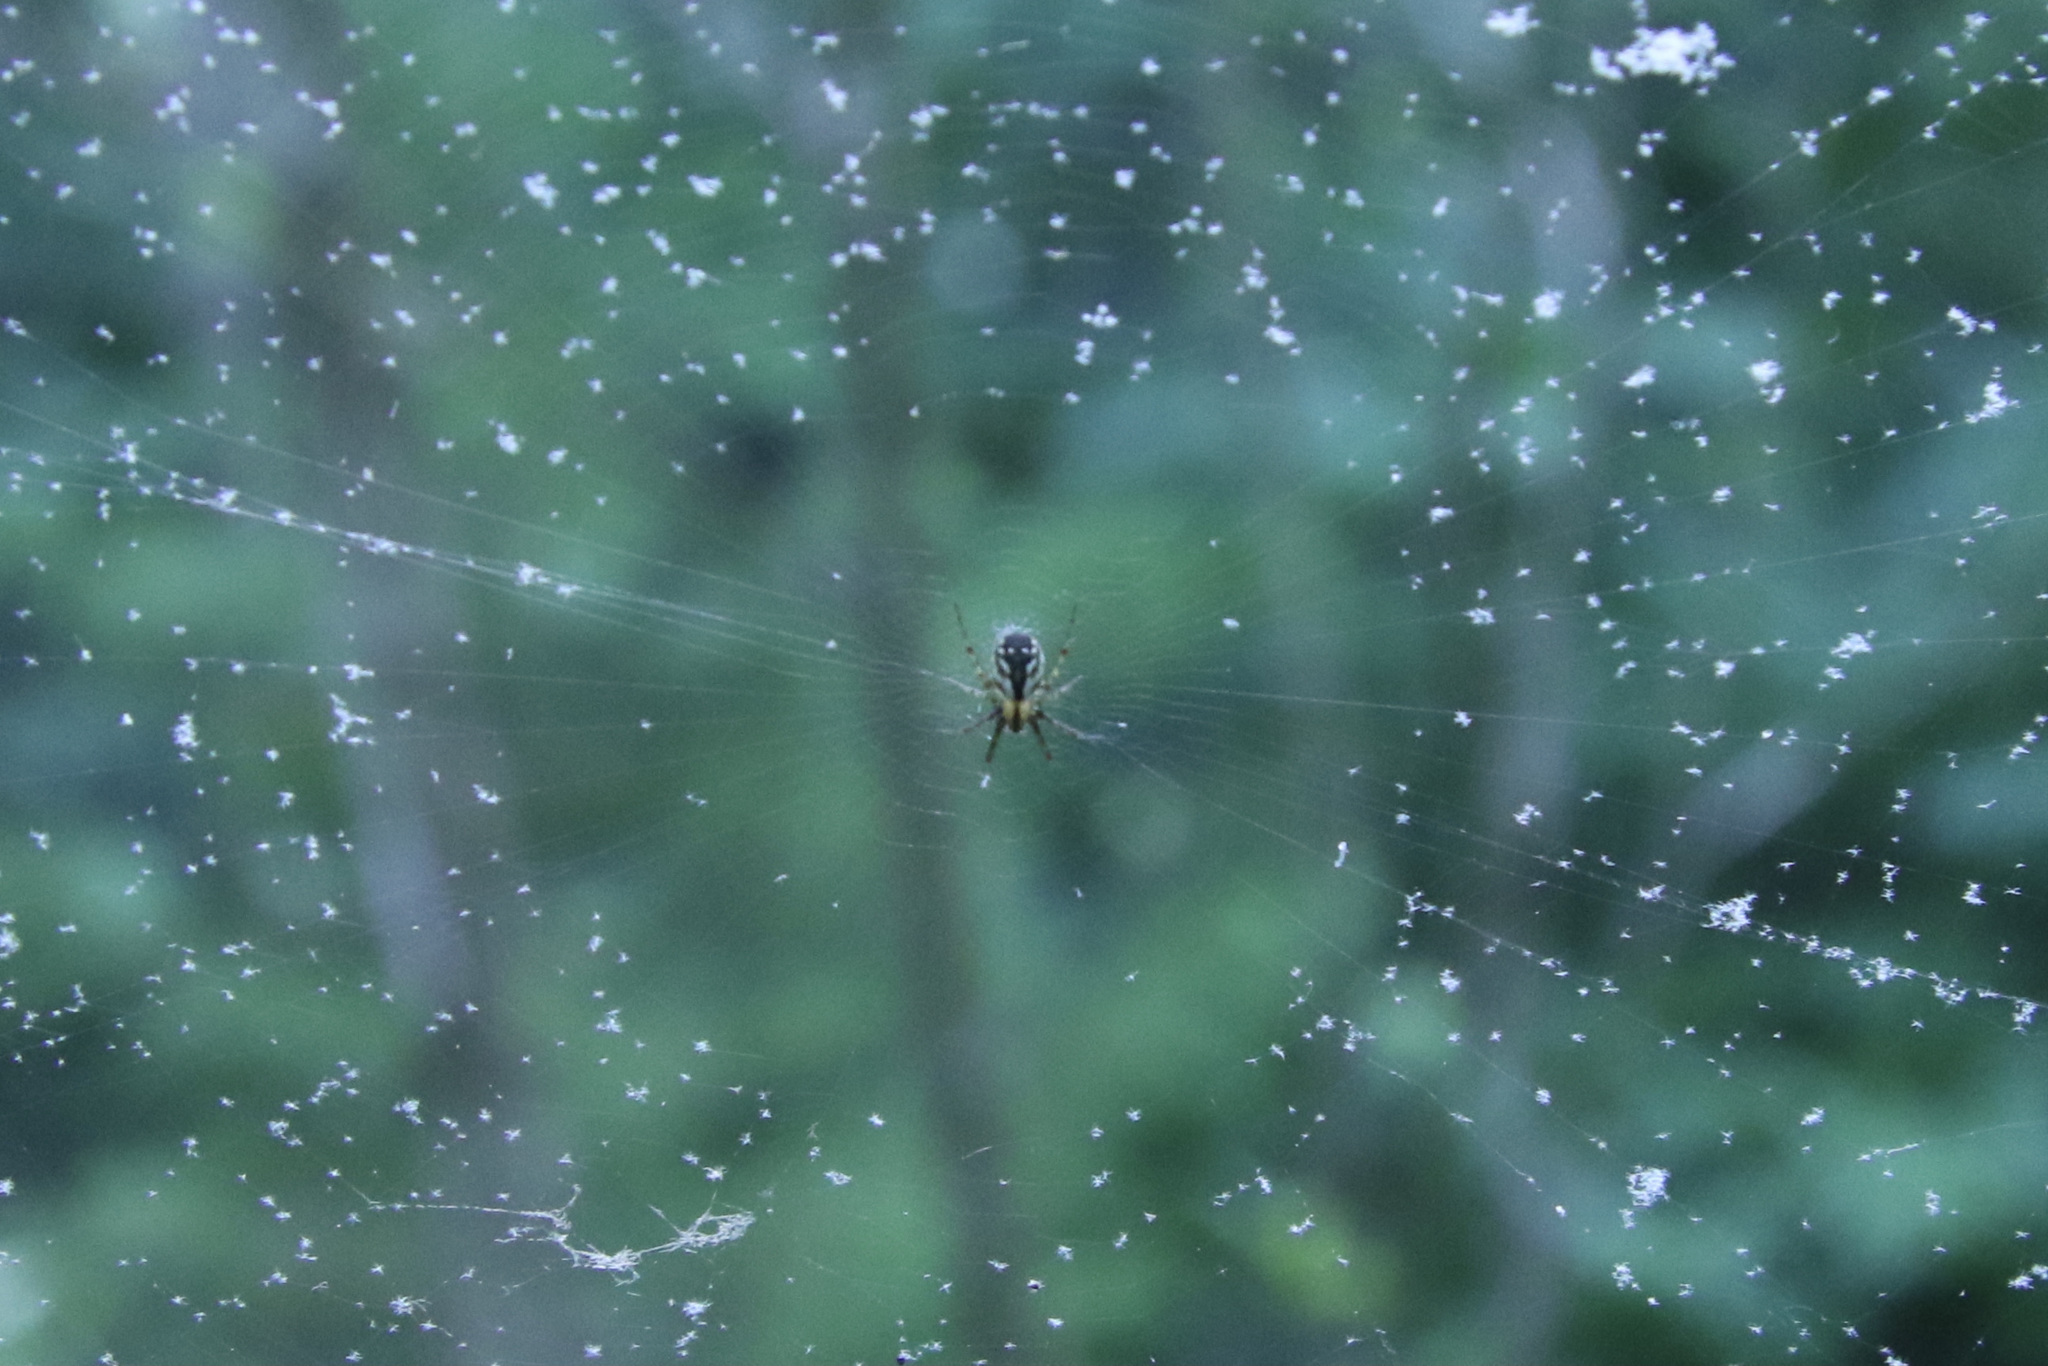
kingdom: Animalia
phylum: Arthropoda
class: Arachnida
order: Araneae
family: Araneidae
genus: Mangora
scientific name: Mangora placida
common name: Tuft-legged orbweaver
